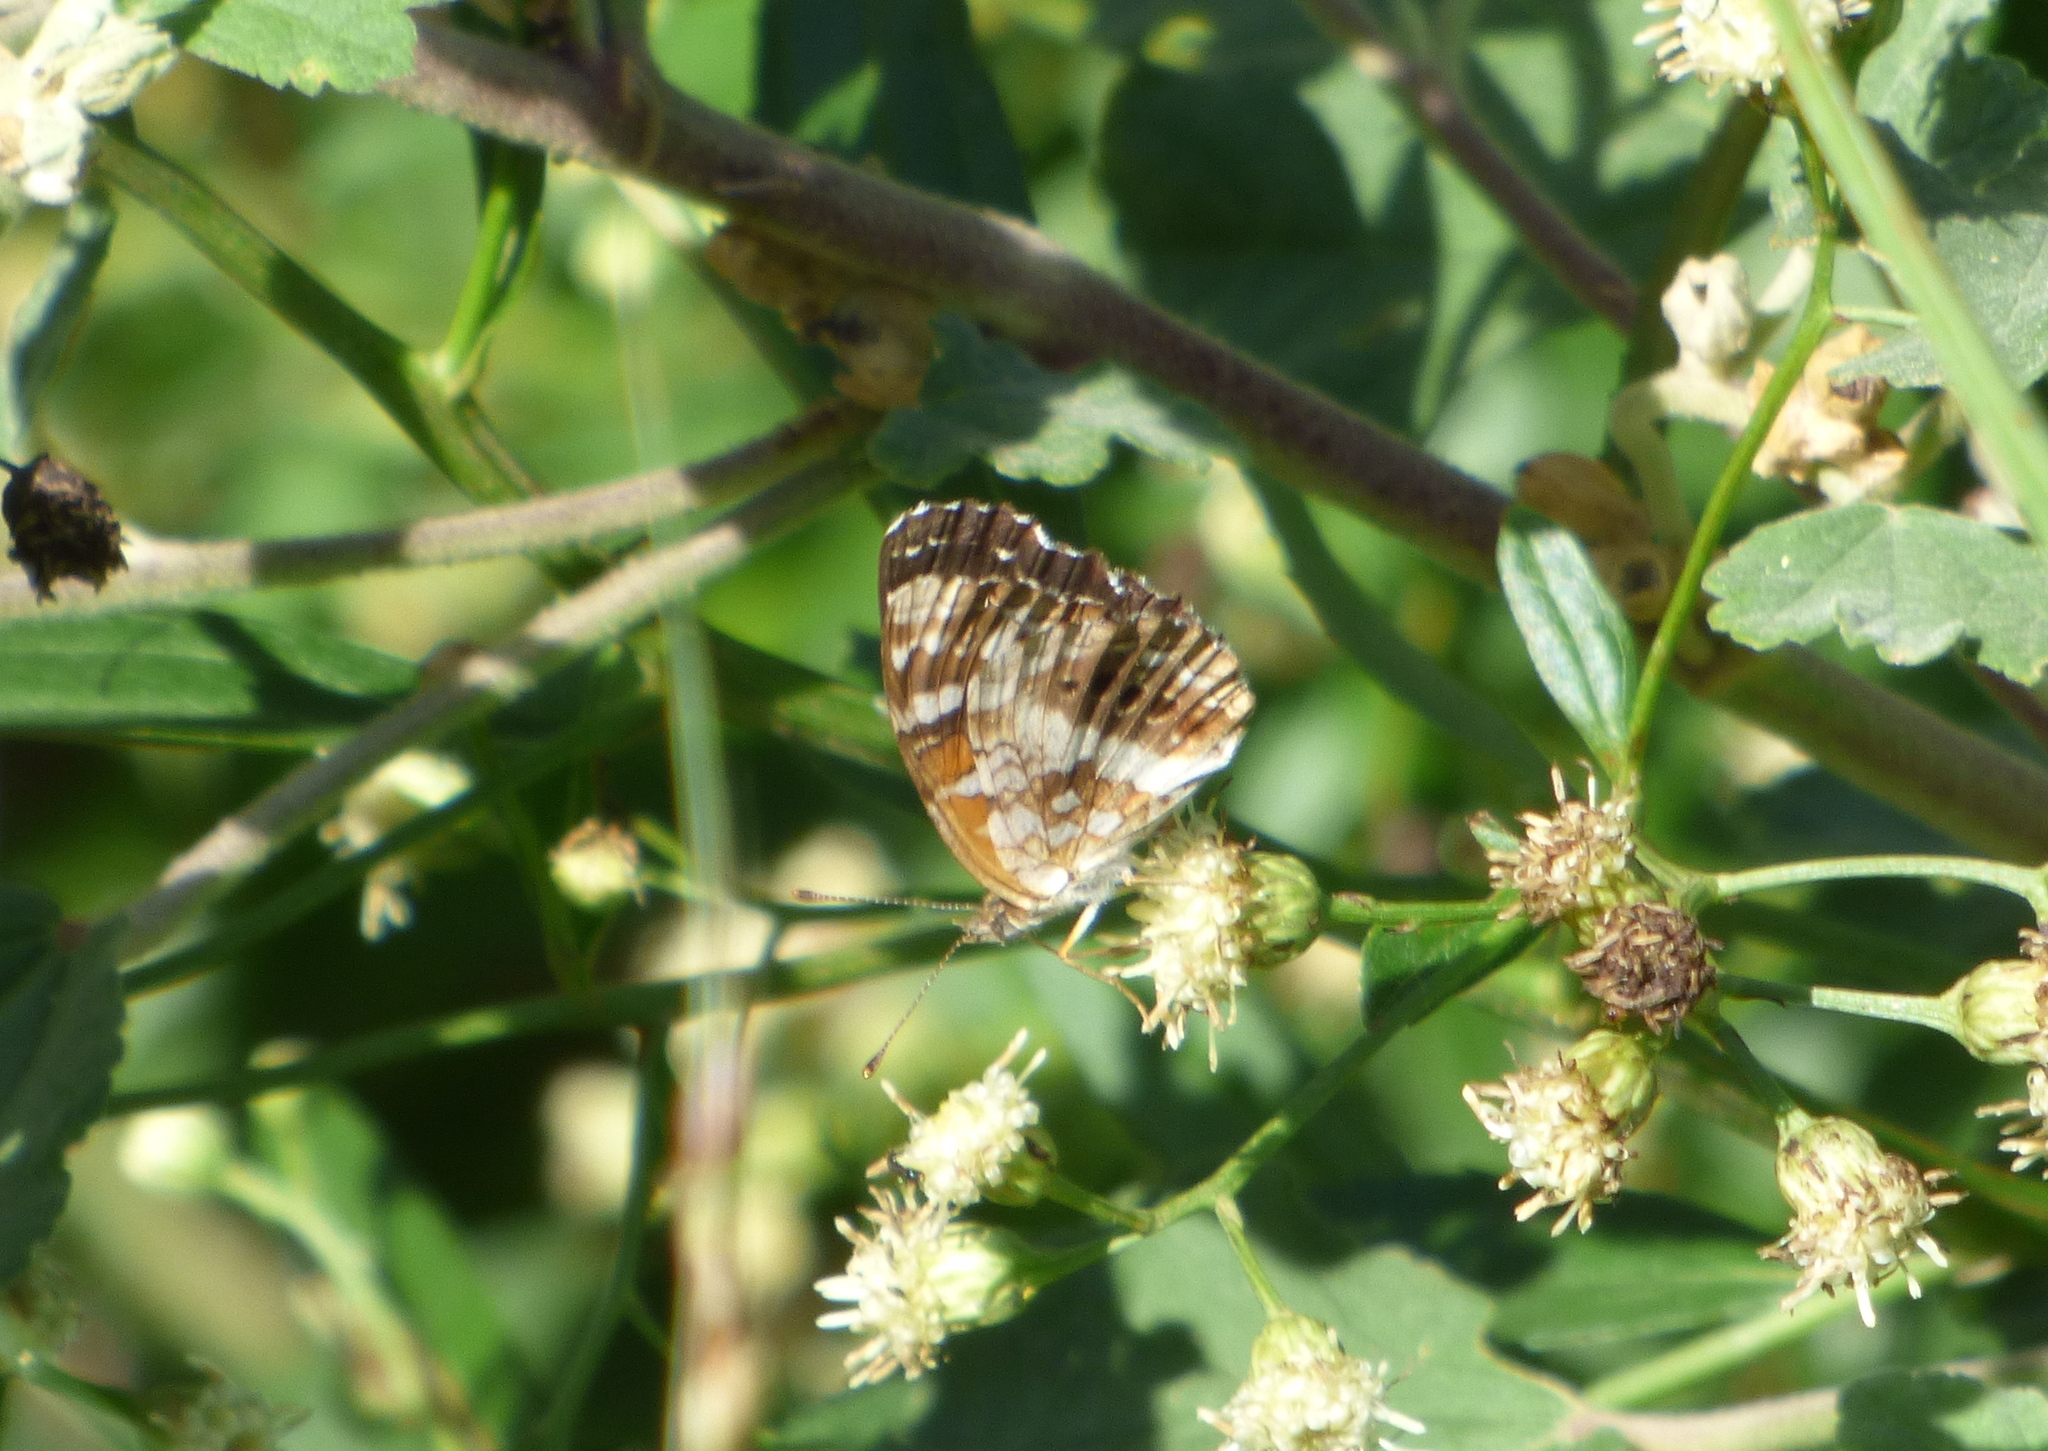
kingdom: Animalia
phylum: Arthropoda
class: Insecta
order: Lepidoptera
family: Nymphalidae
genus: Ortilia
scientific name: Ortilia ithra
